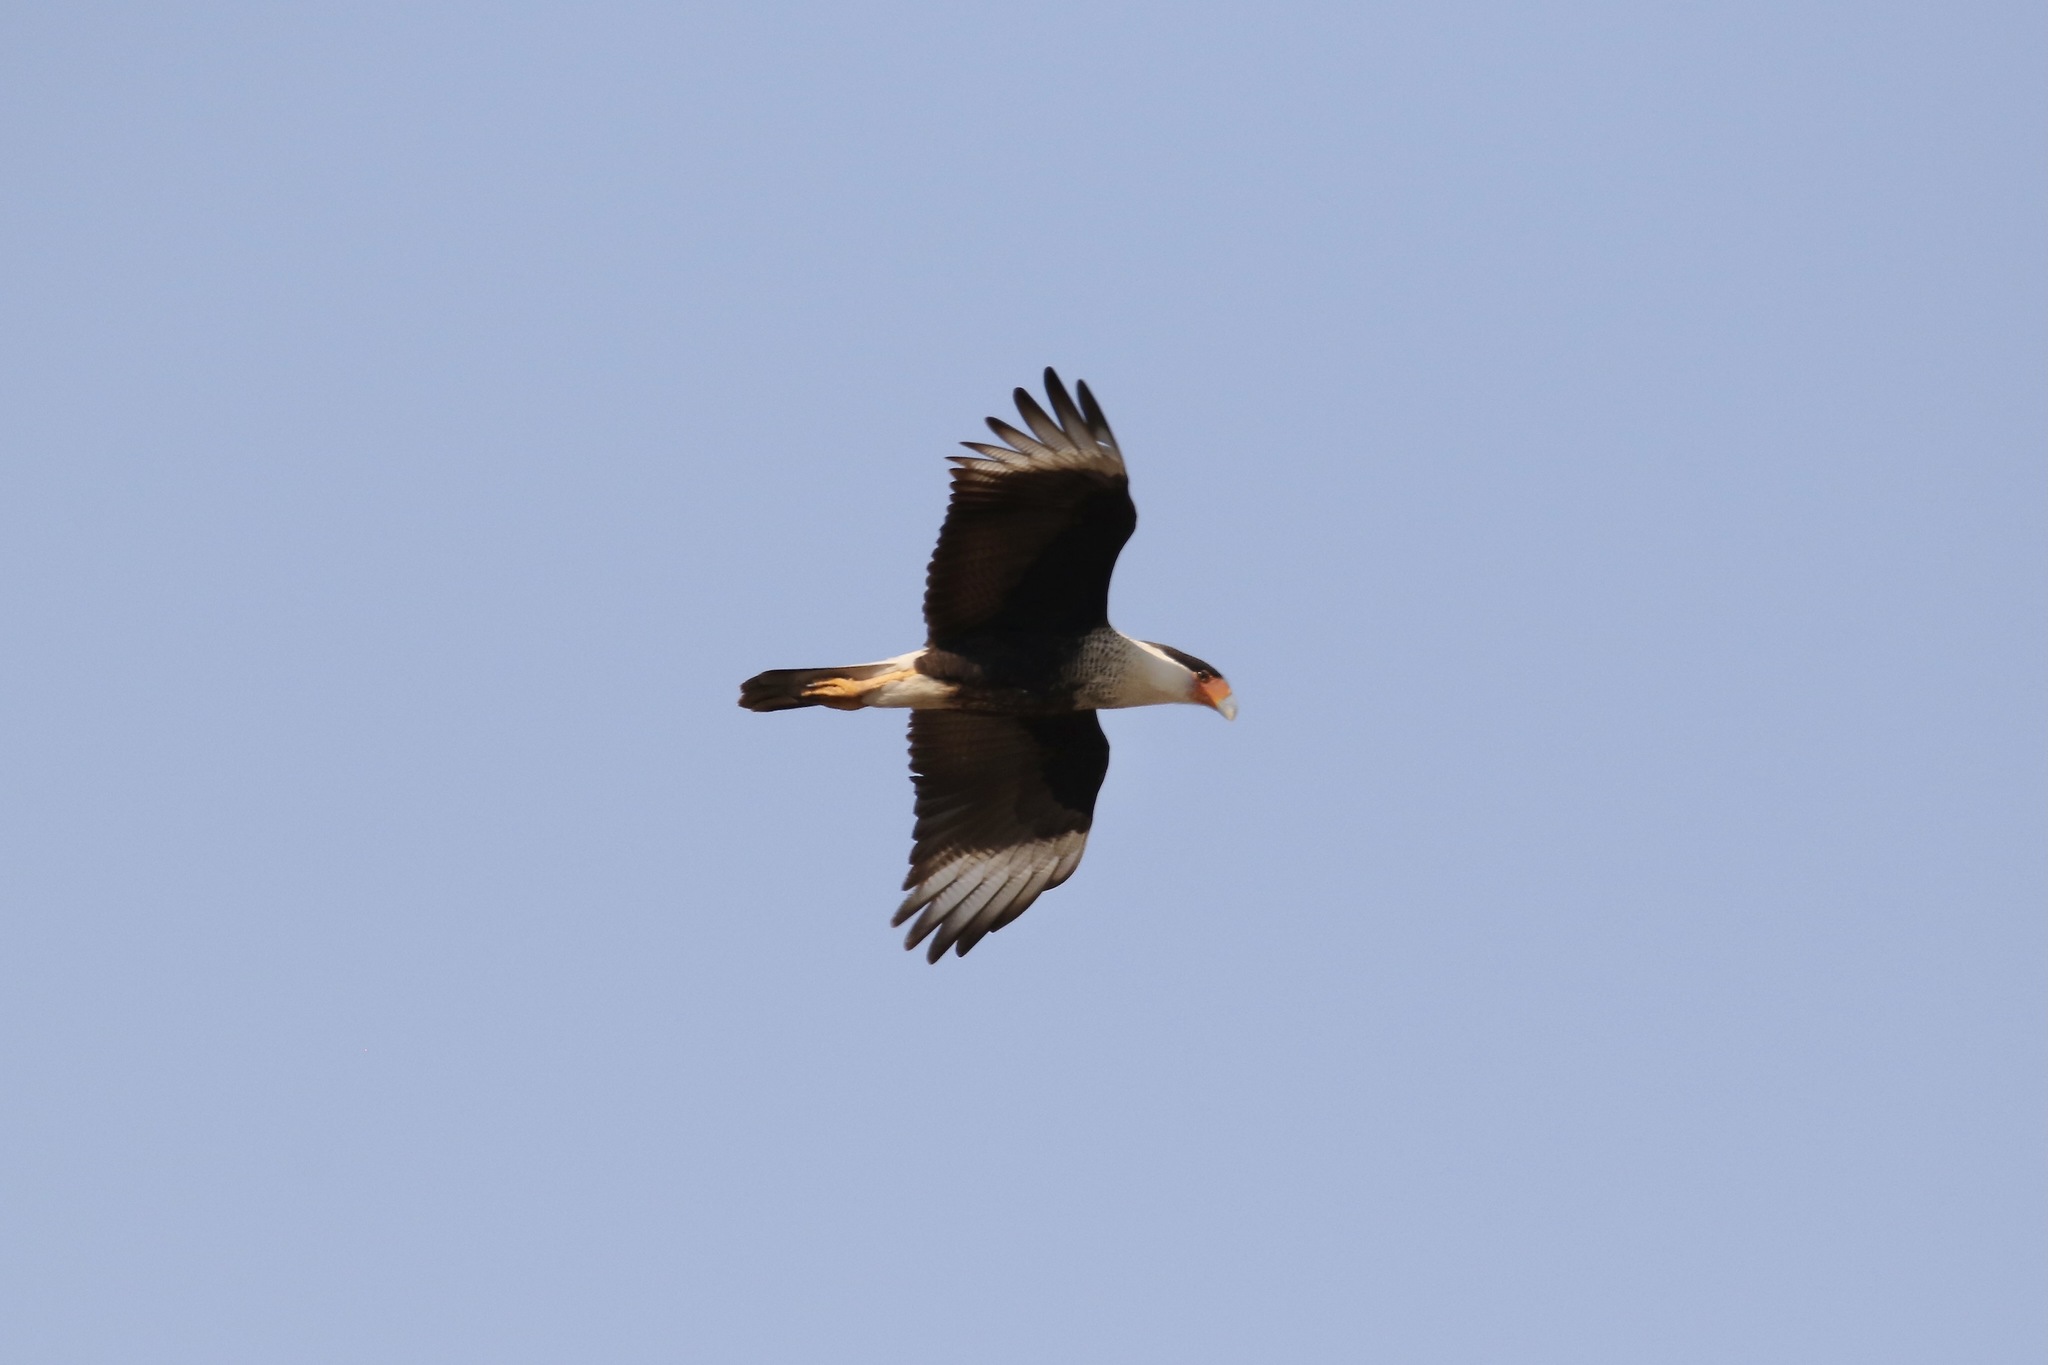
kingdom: Animalia
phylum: Chordata
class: Aves
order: Falconiformes
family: Falconidae
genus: Caracara
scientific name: Caracara plancus
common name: Southern caracara
